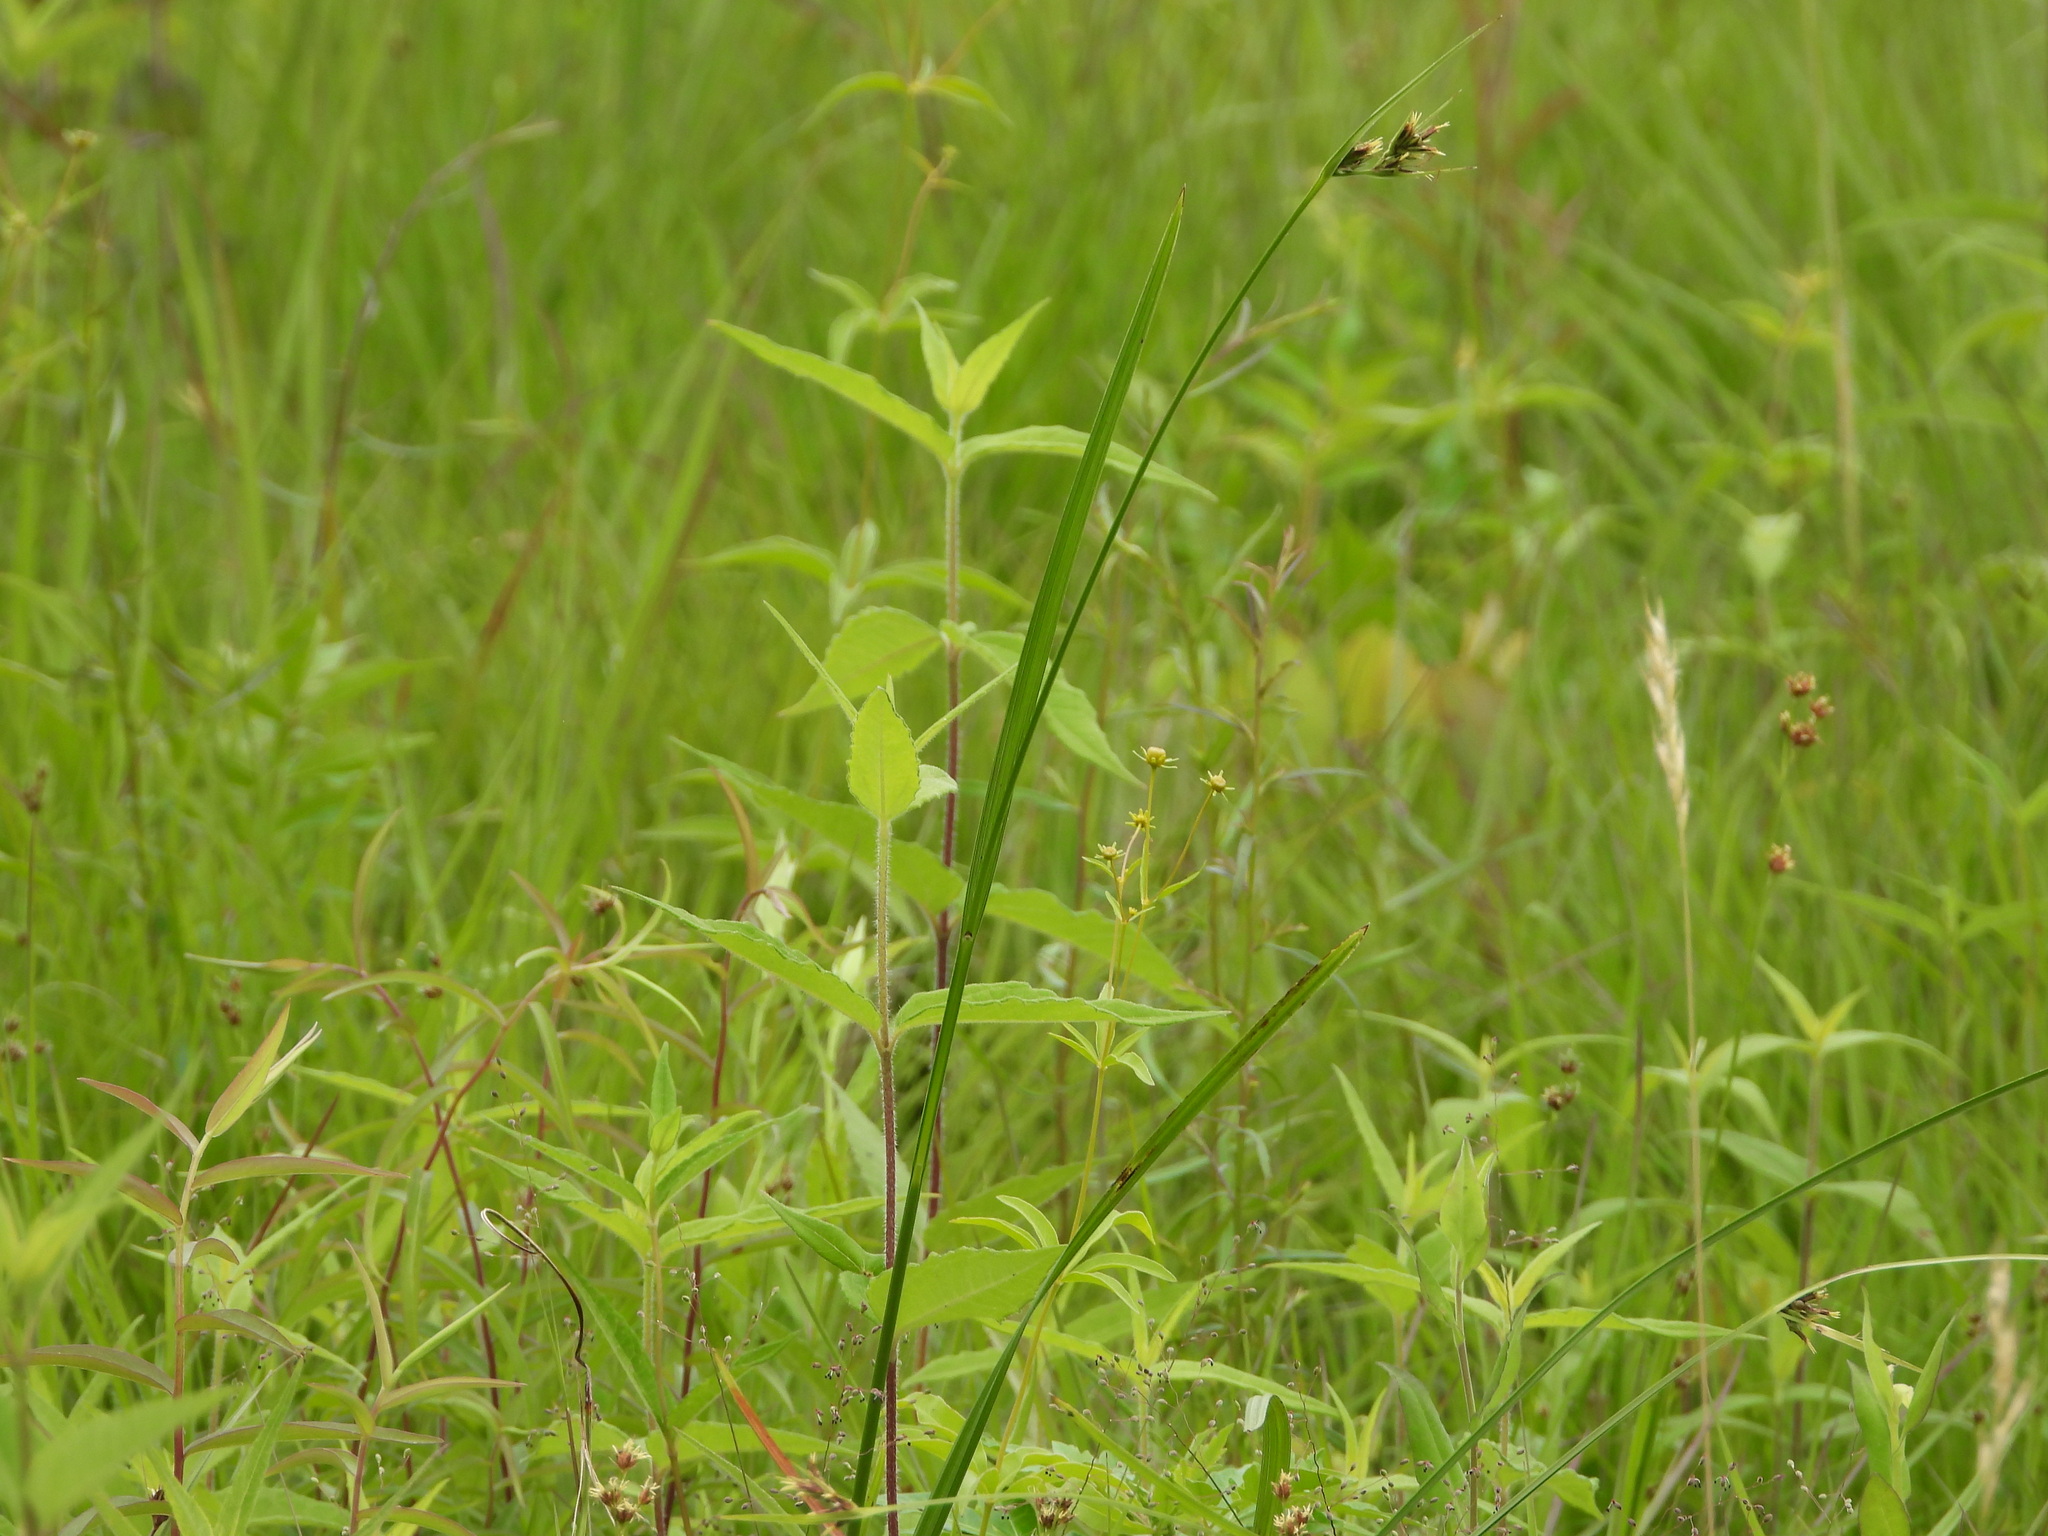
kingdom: Plantae
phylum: Tracheophyta
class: Liliopsida
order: Poales
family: Cyperaceae
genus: Scleria
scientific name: Scleria triglomerata
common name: Whip nutrush
